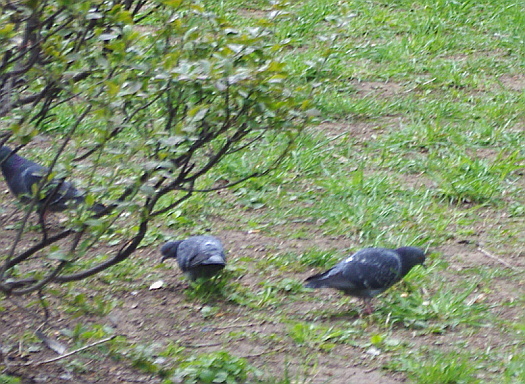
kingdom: Animalia
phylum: Chordata
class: Aves
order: Columbiformes
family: Columbidae
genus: Columba
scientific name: Columba livia
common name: Rock pigeon
